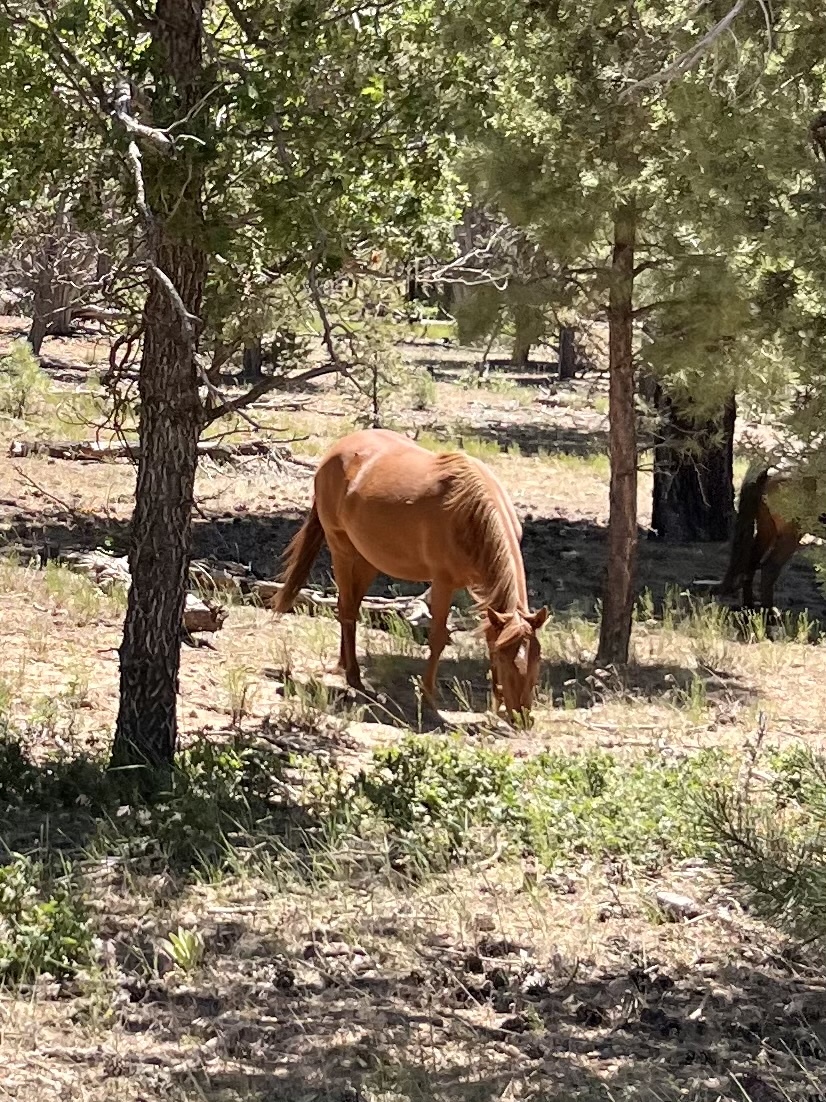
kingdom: Animalia
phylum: Chordata
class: Mammalia
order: Perissodactyla
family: Equidae
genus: Equus
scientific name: Equus caballus
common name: Horse
